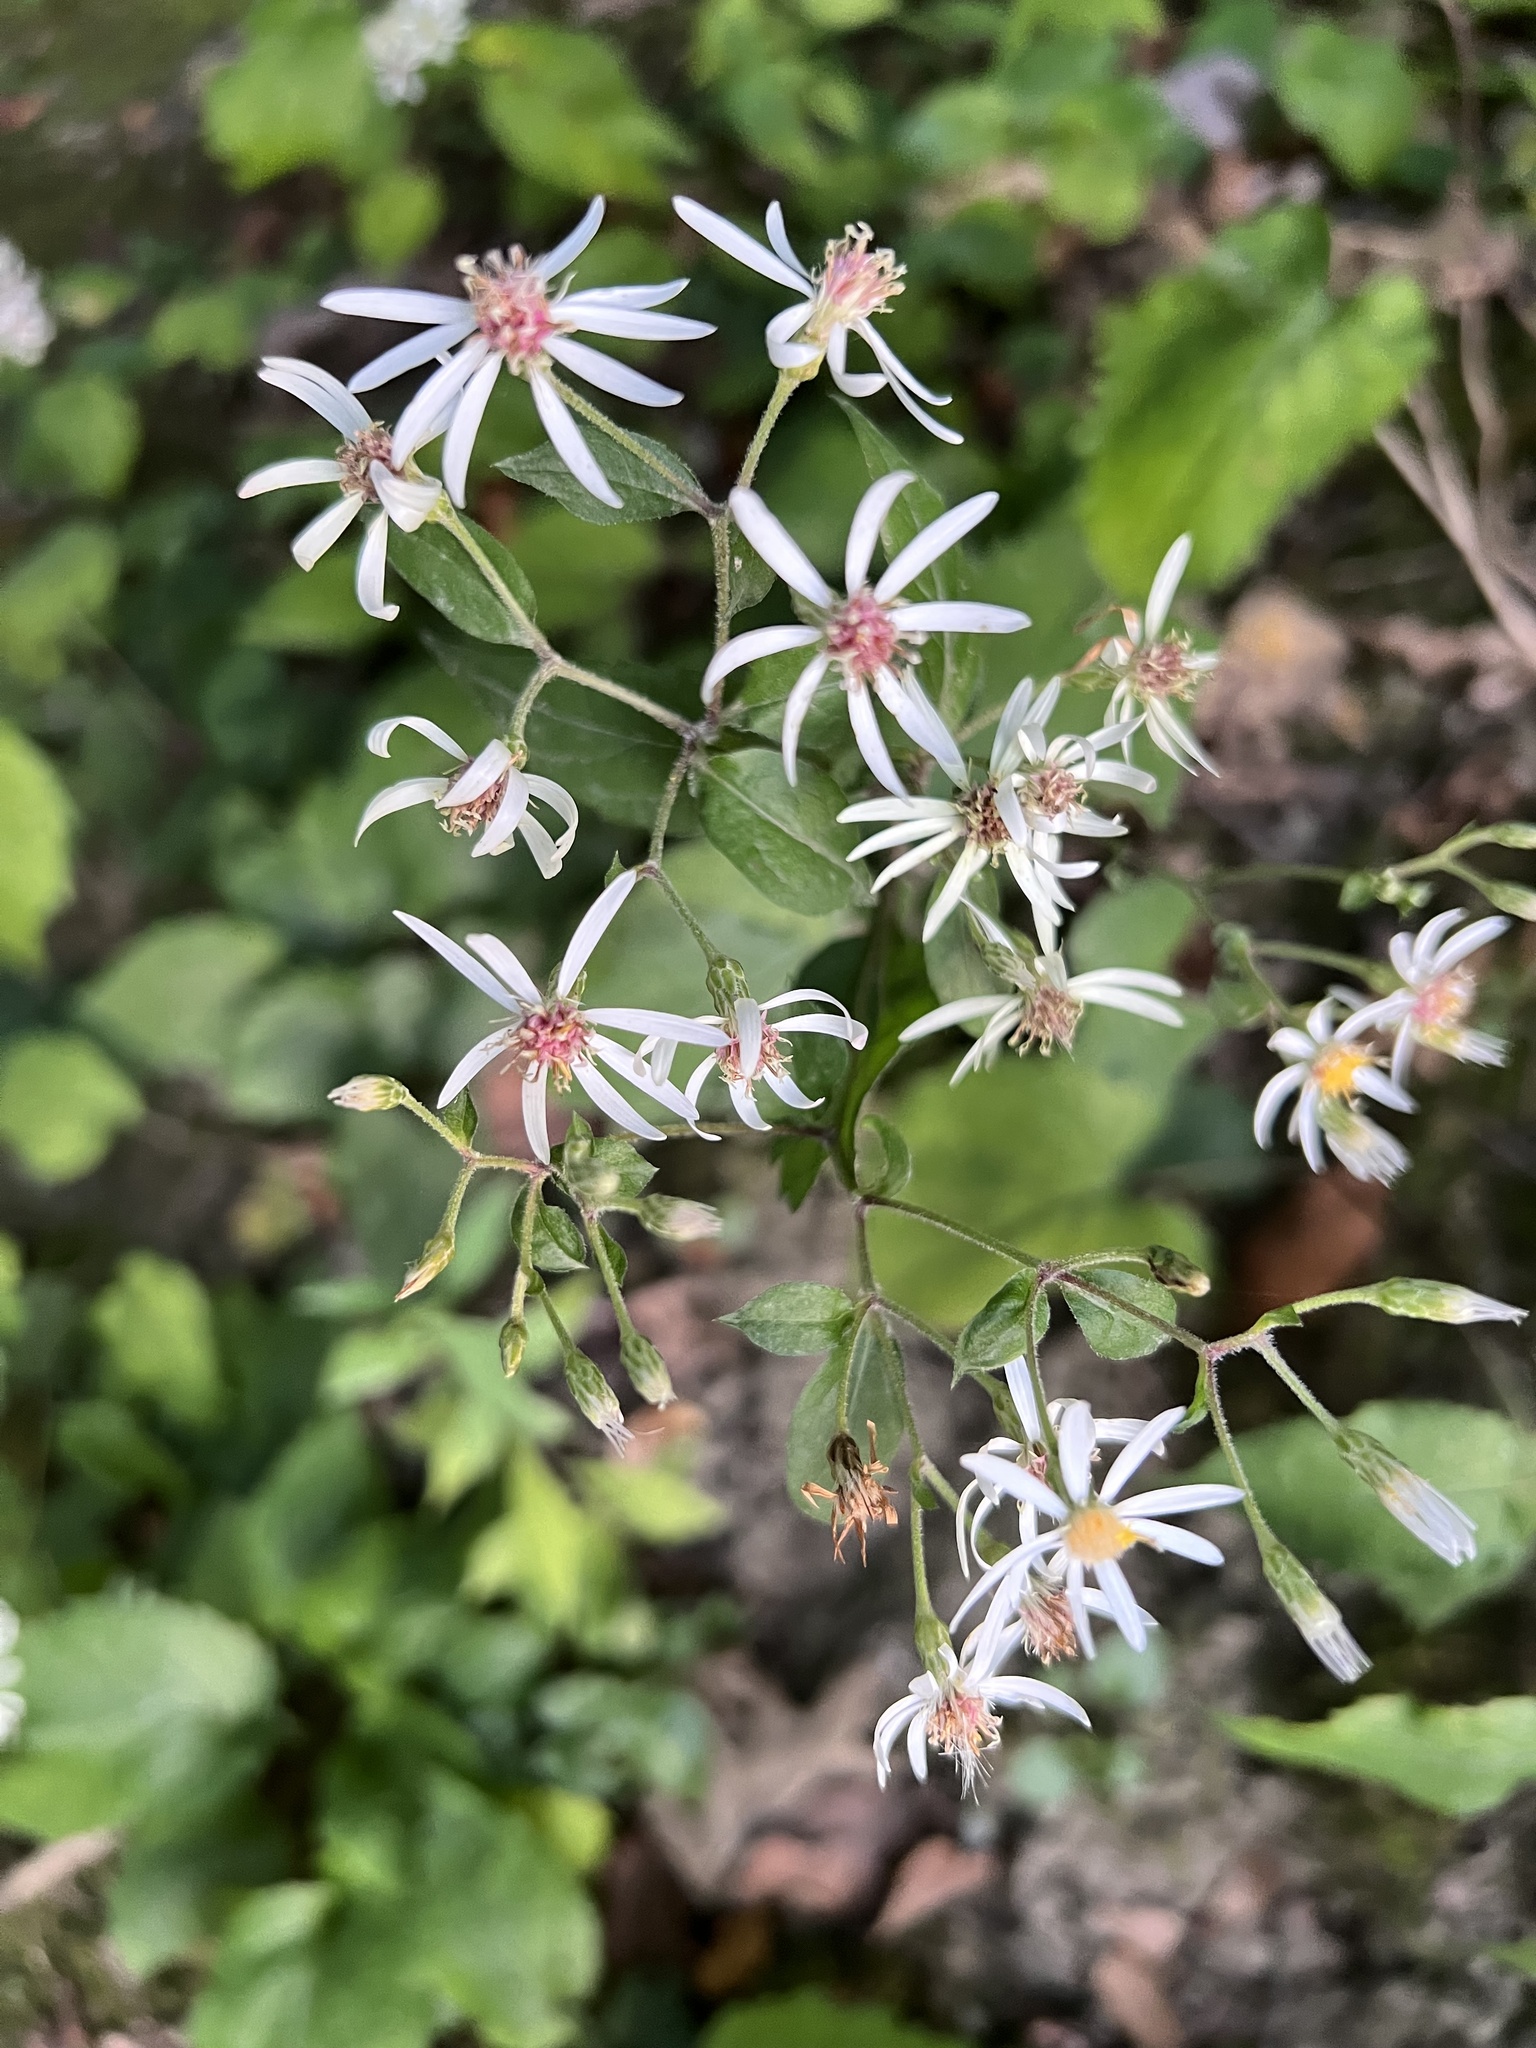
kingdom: Plantae
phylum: Tracheophyta
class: Magnoliopsida
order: Asterales
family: Asteraceae
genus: Eurybia
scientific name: Eurybia divaricata
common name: White wood aster
